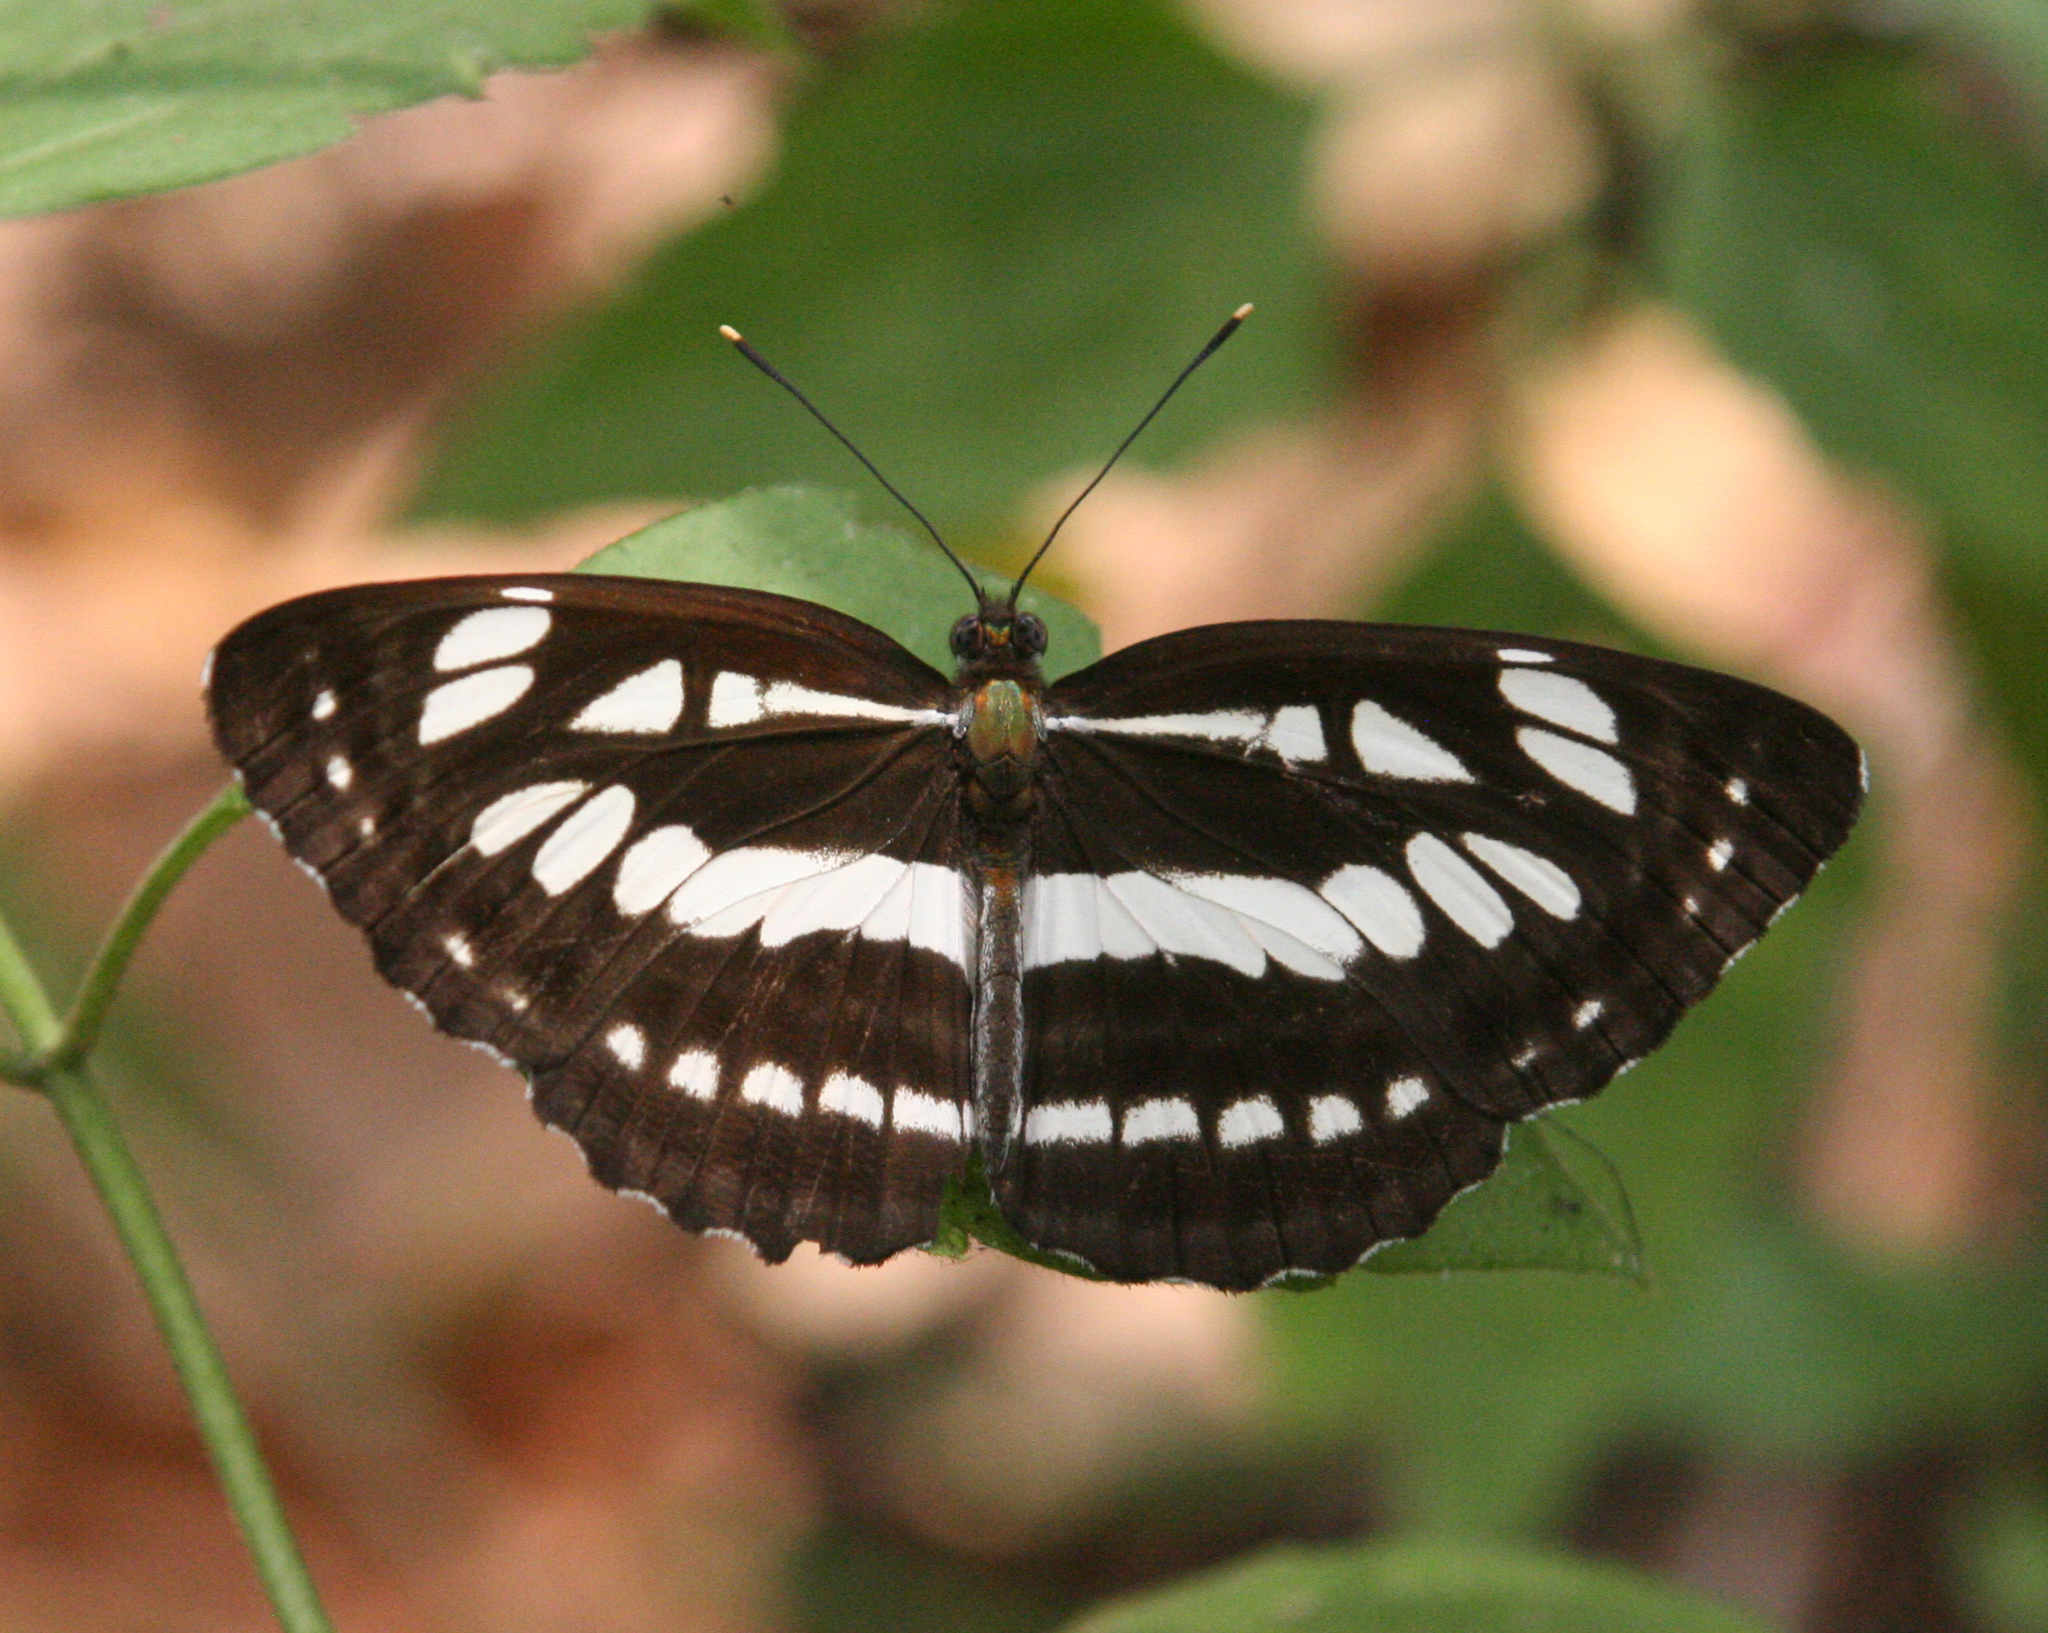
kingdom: Animalia
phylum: Arthropoda
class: Insecta
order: Lepidoptera
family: Nymphalidae
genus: Neptis
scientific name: Neptis hylas
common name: Common sailer
